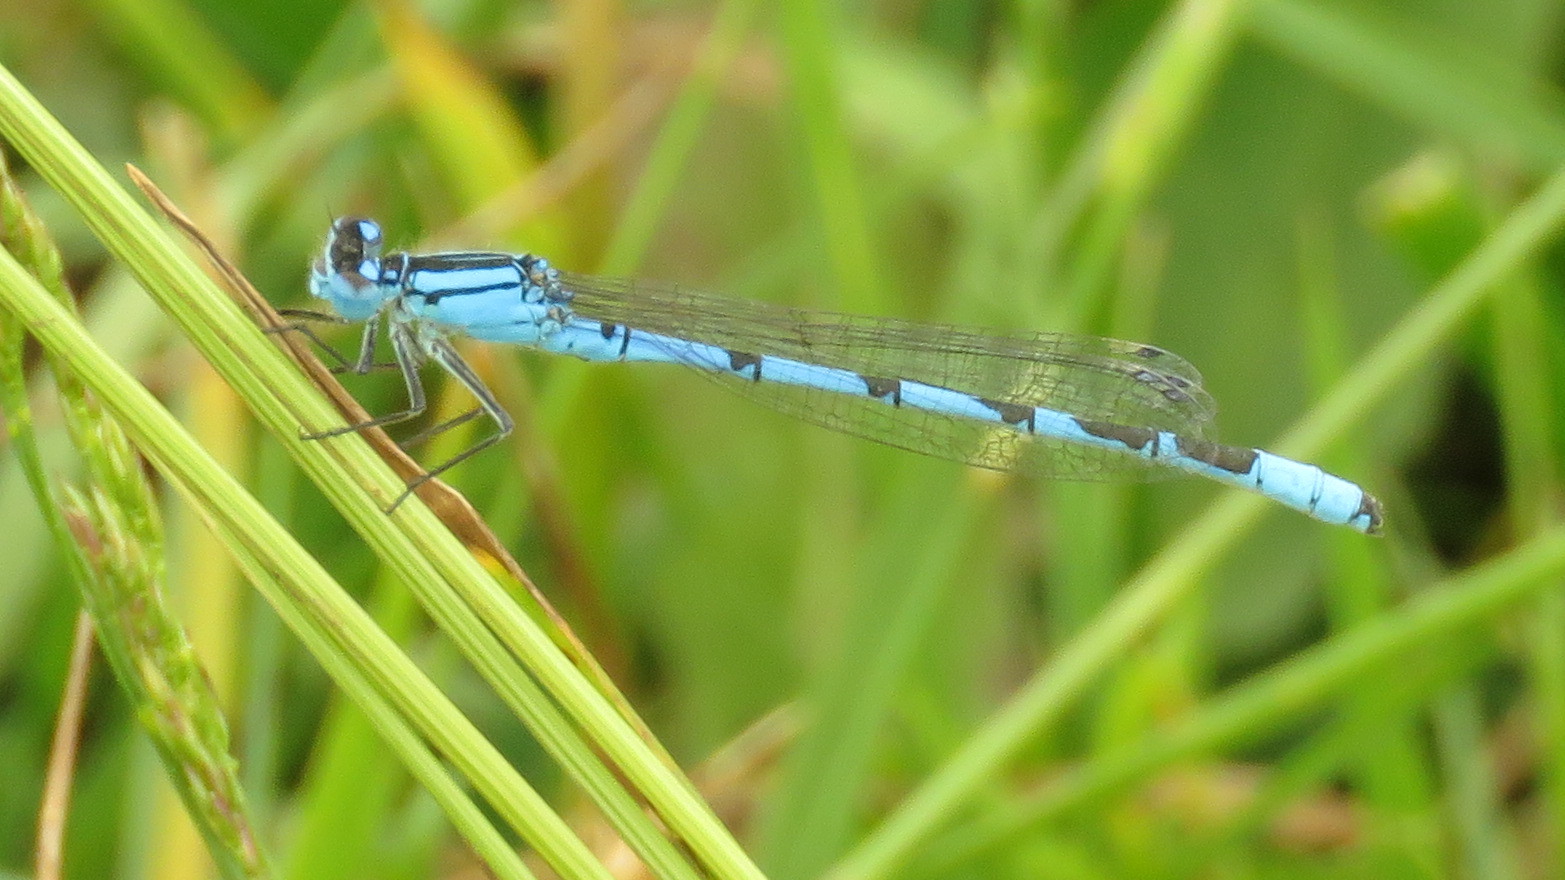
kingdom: Animalia
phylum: Arthropoda
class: Insecta
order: Odonata
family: Coenagrionidae
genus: Enallagma
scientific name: Enallagma cyathigerum
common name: Common blue damselfly
